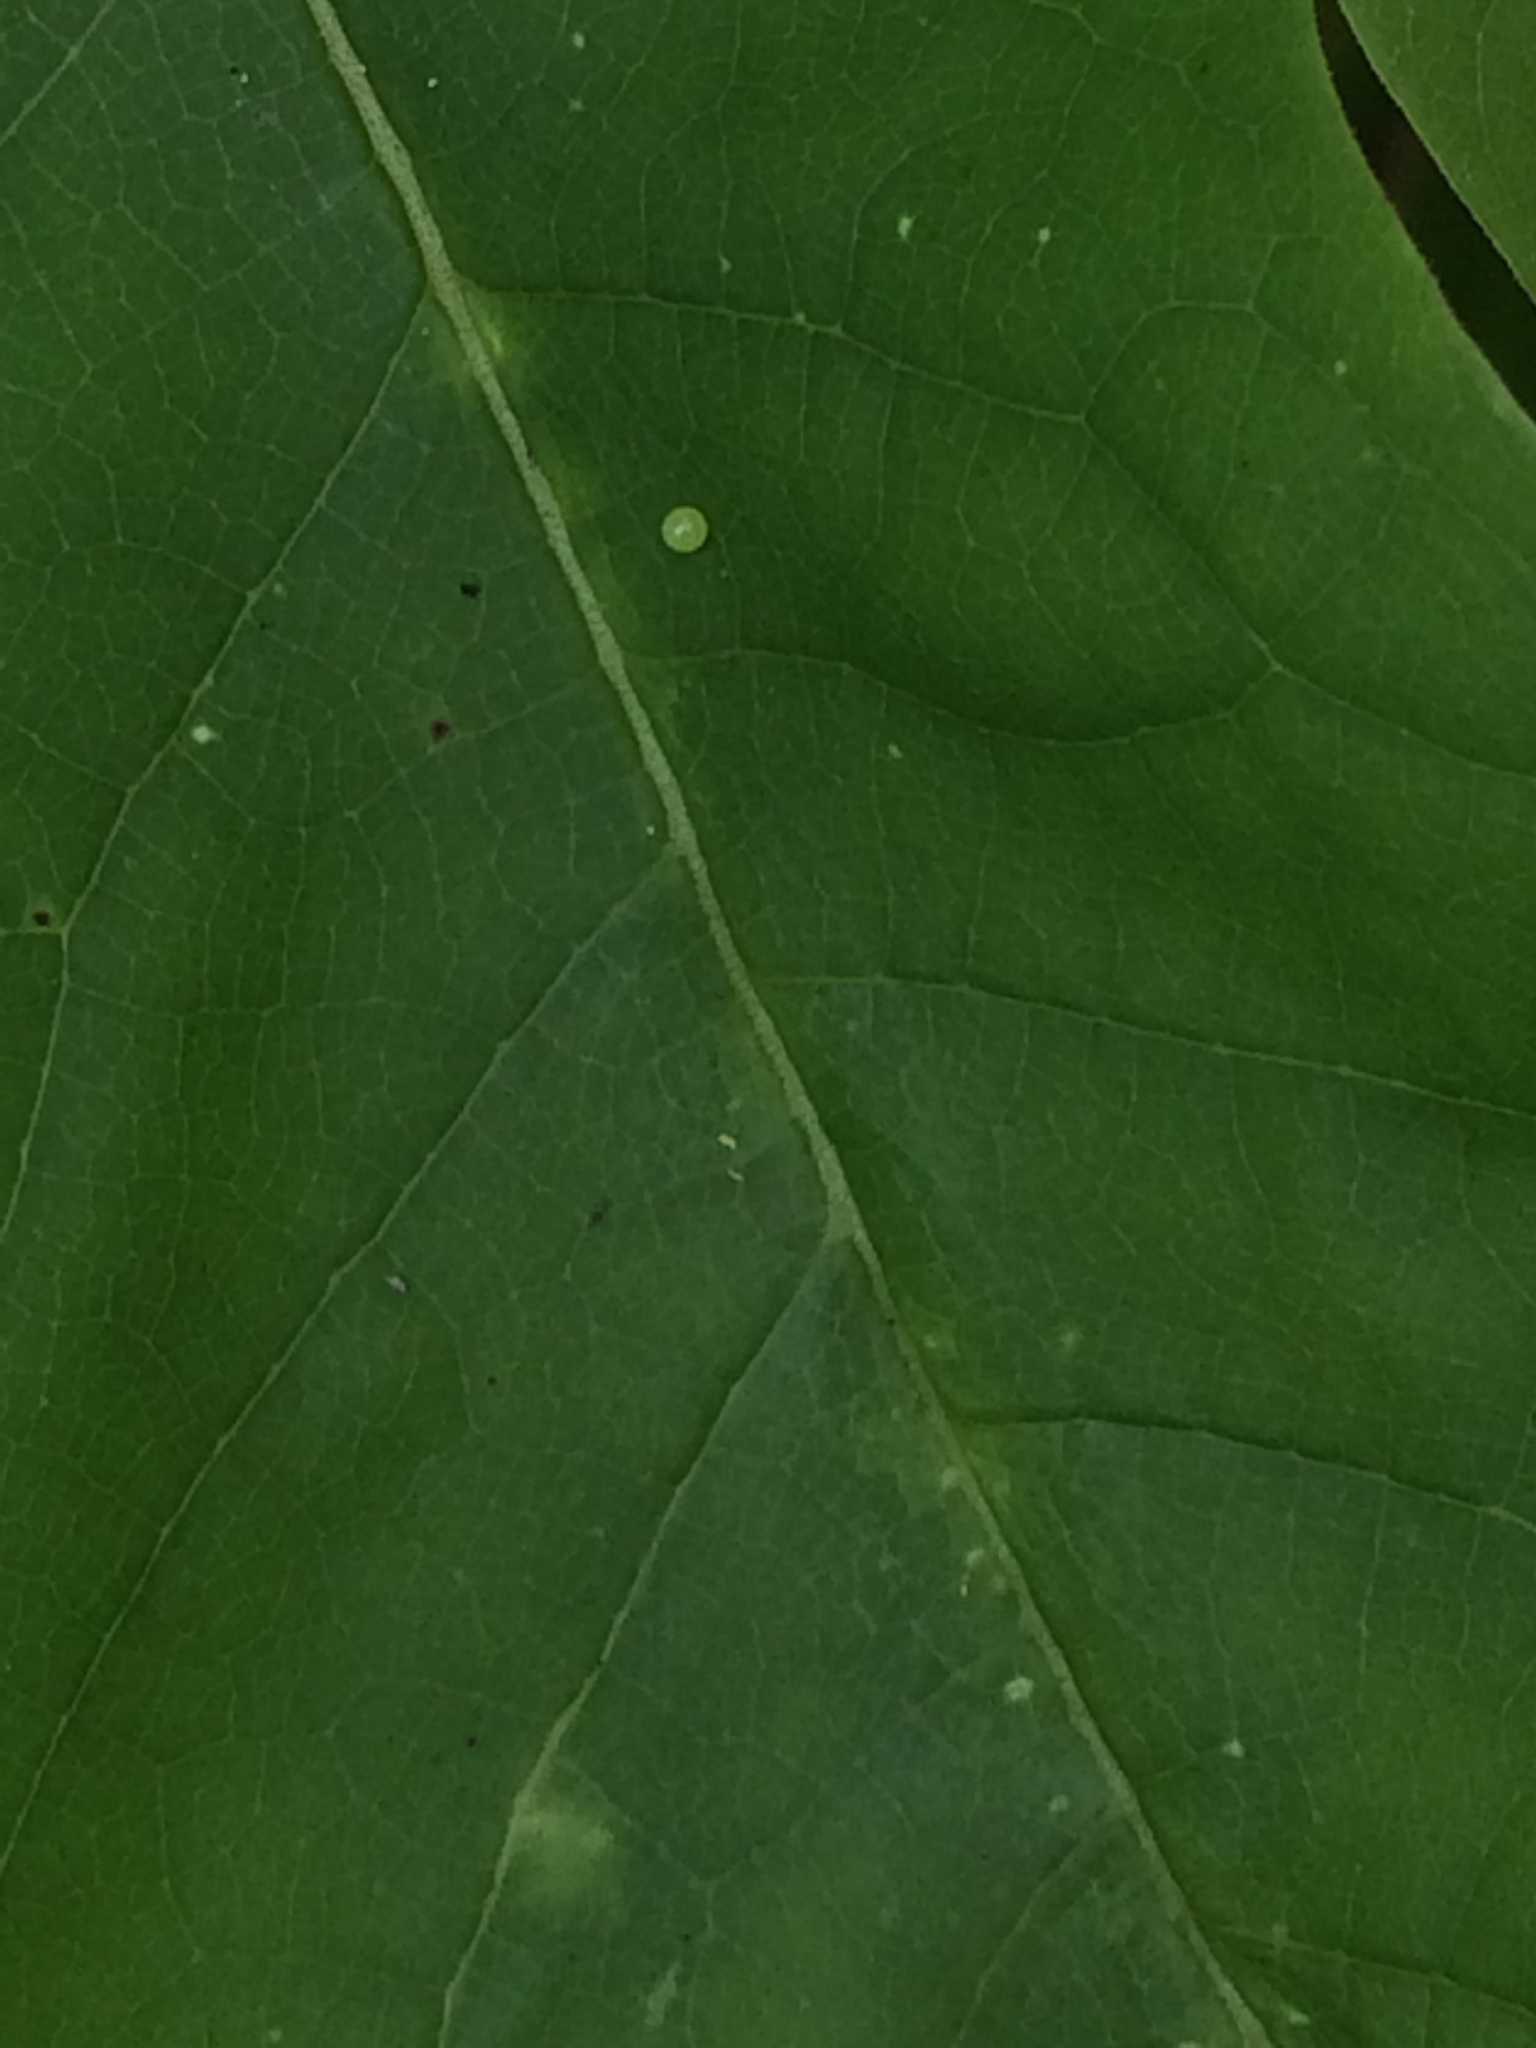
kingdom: Animalia
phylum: Arthropoda
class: Insecta
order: Lepidoptera
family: Papilionidae
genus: Protographium
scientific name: Protographium marcellus
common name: Zebra swallowtail
